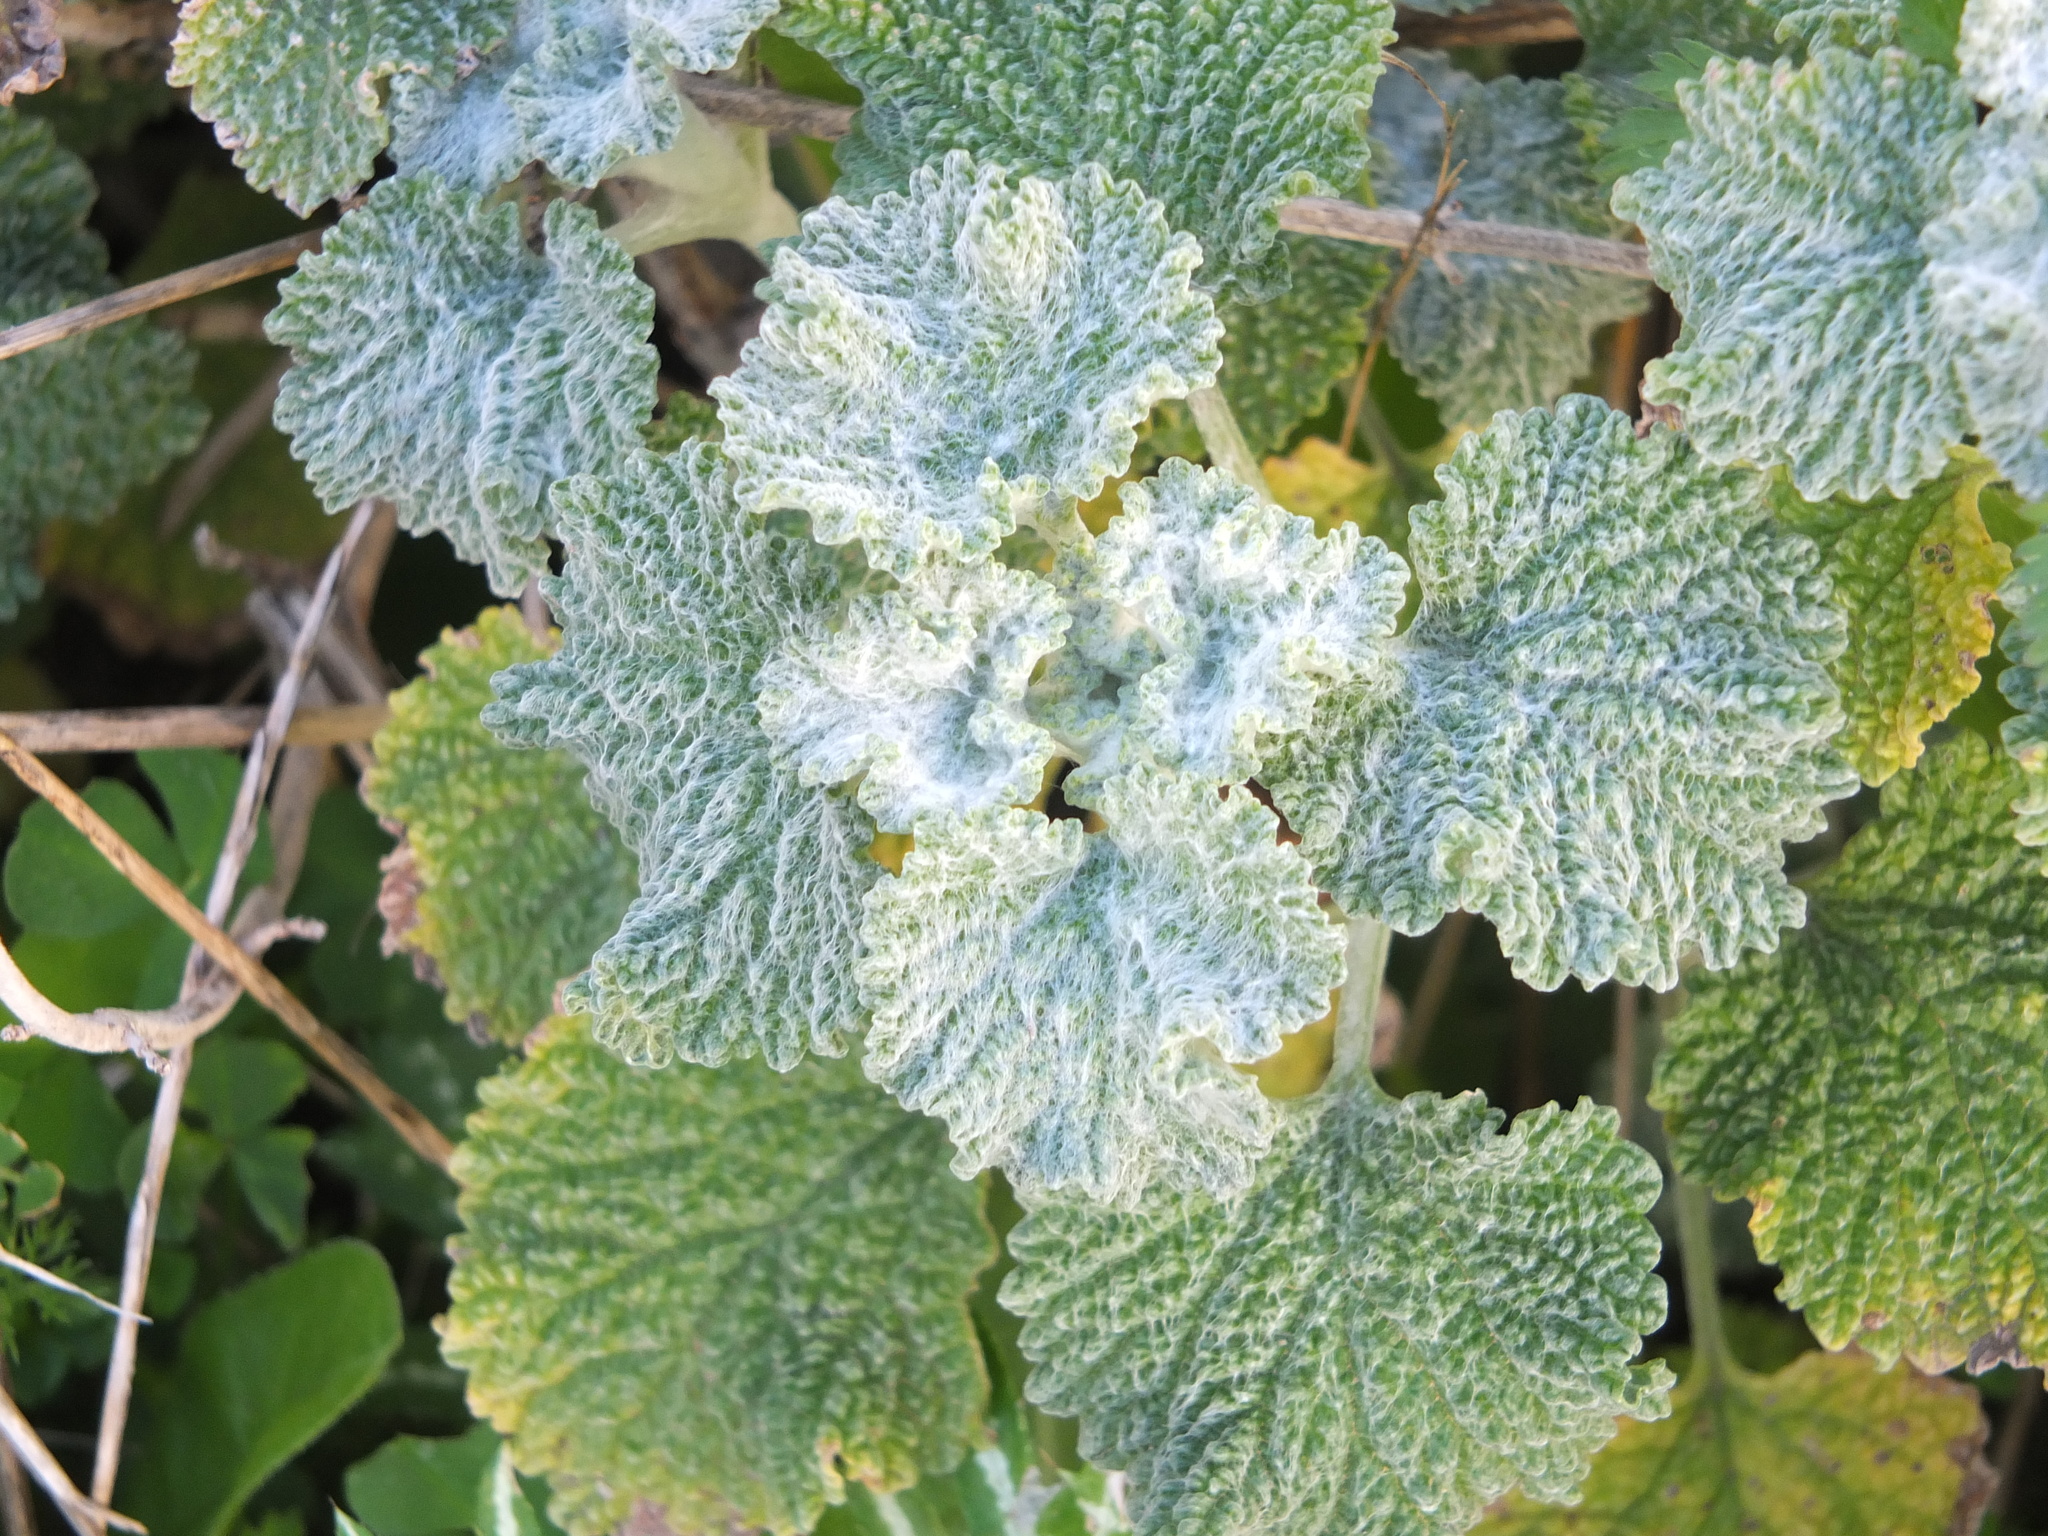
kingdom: Plantae
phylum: Tracheophyta
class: Magnoliopsida
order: Lamiales
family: Lamiaceae
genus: Marrubium
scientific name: Marrubium vulgare
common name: Horehound
